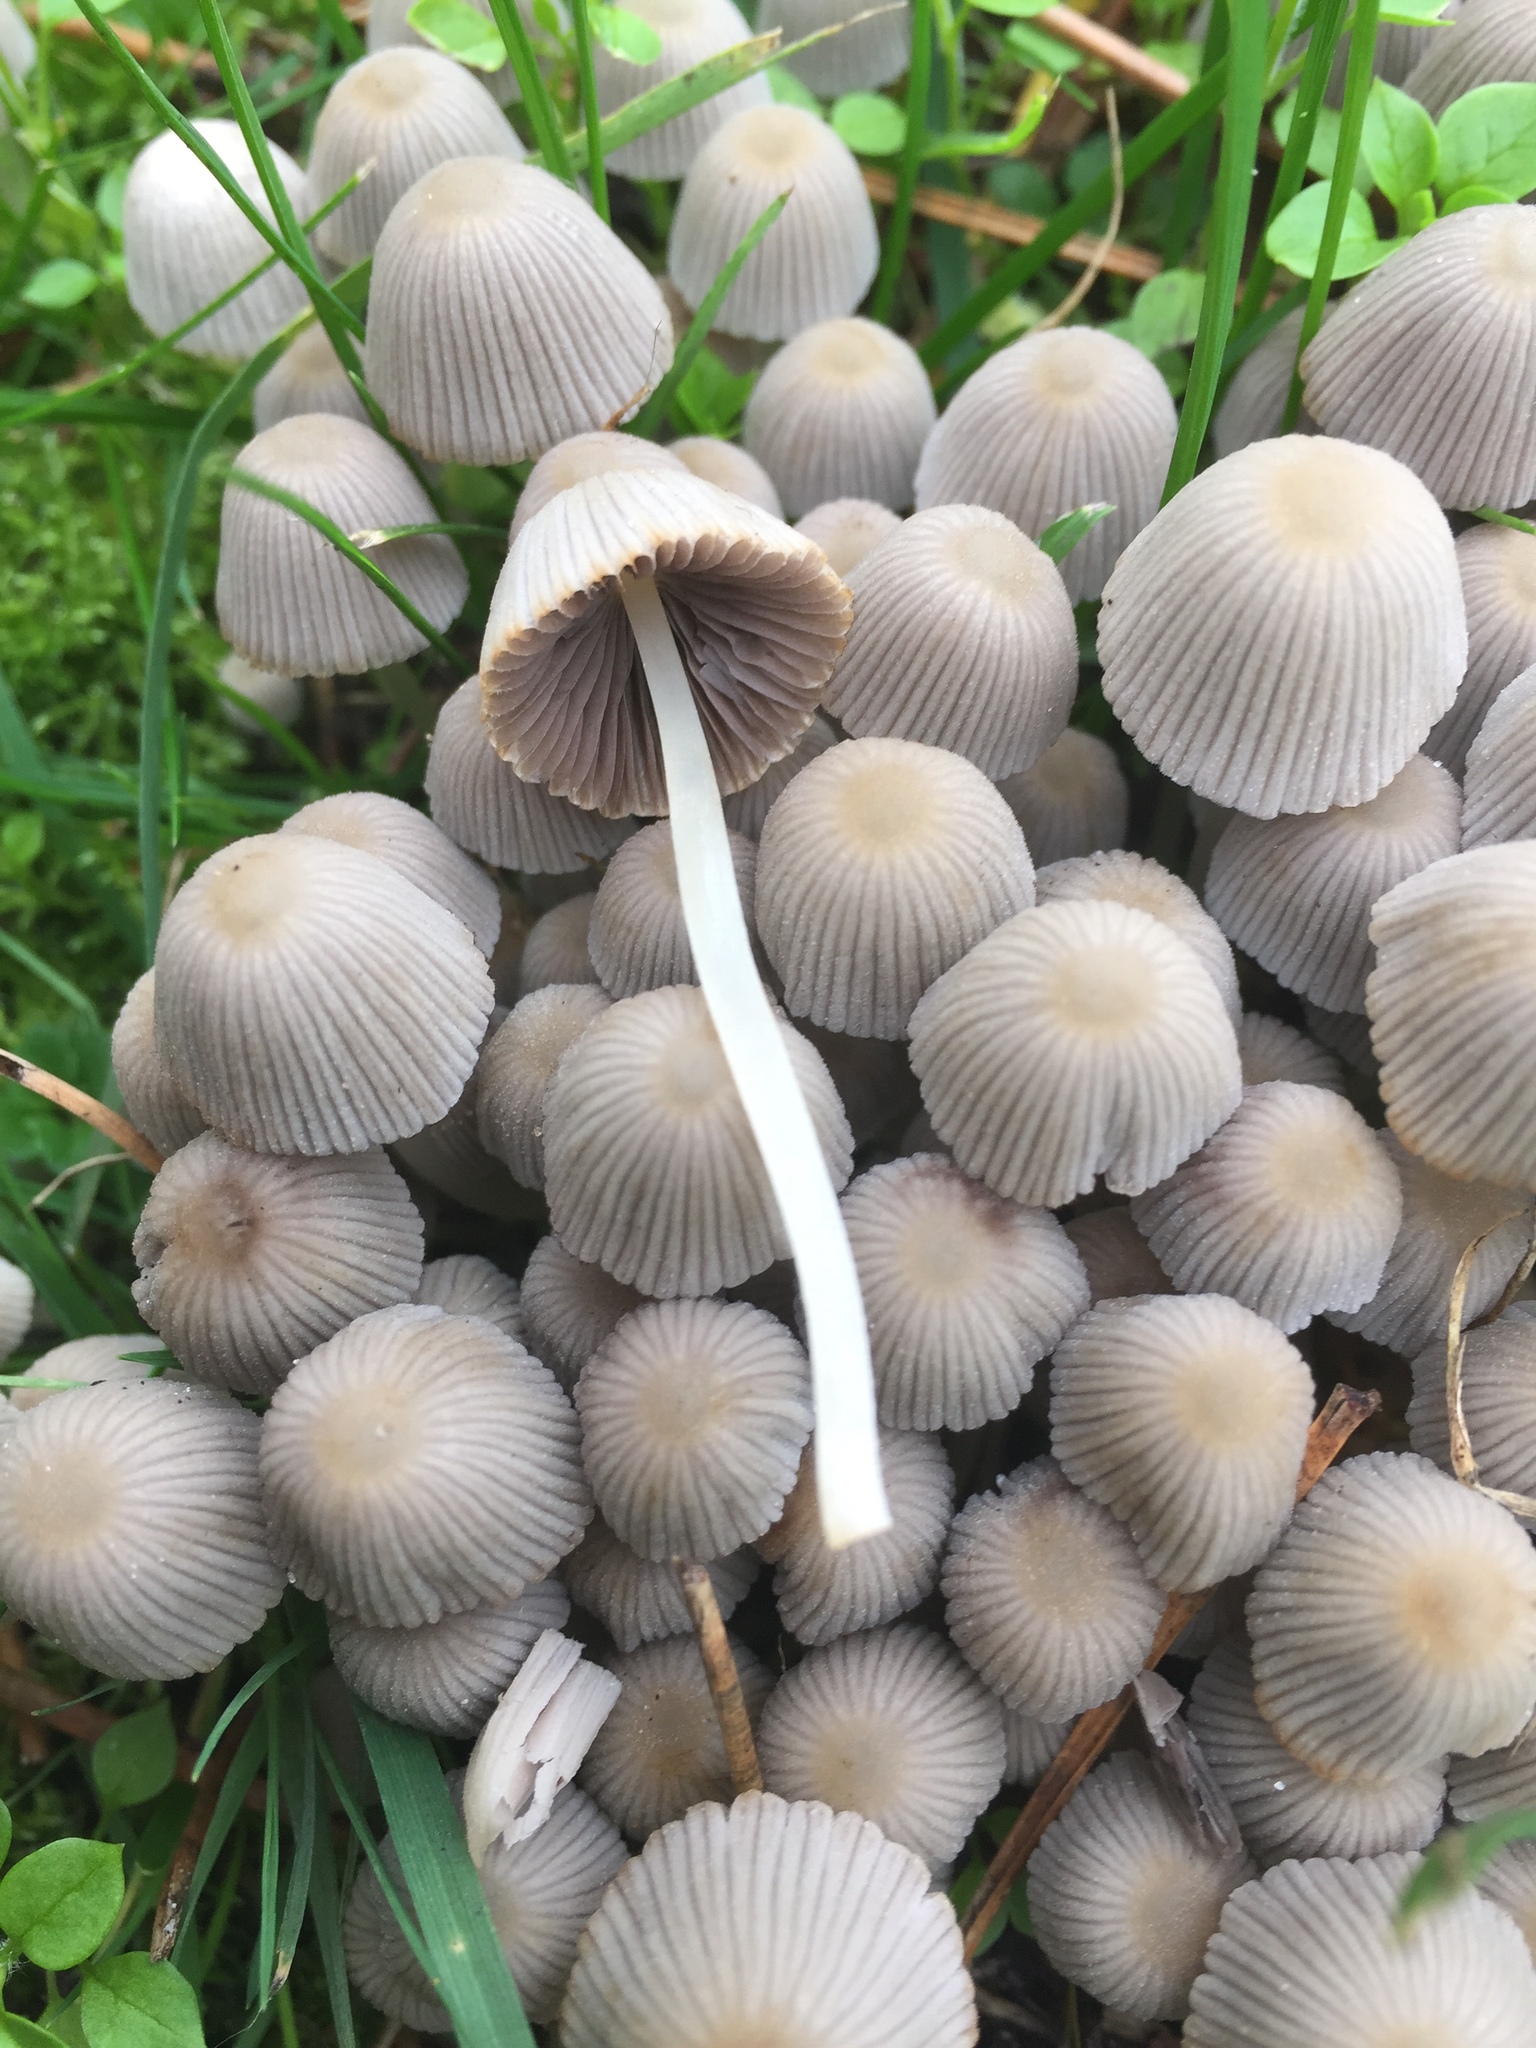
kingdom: Fungi
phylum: Basidiomycota
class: Agaricomycetes
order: Agaricales
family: Psathyrellaceae
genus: Coprinellus
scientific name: Coprinellus disseminatus
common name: Fairies' bonnets
